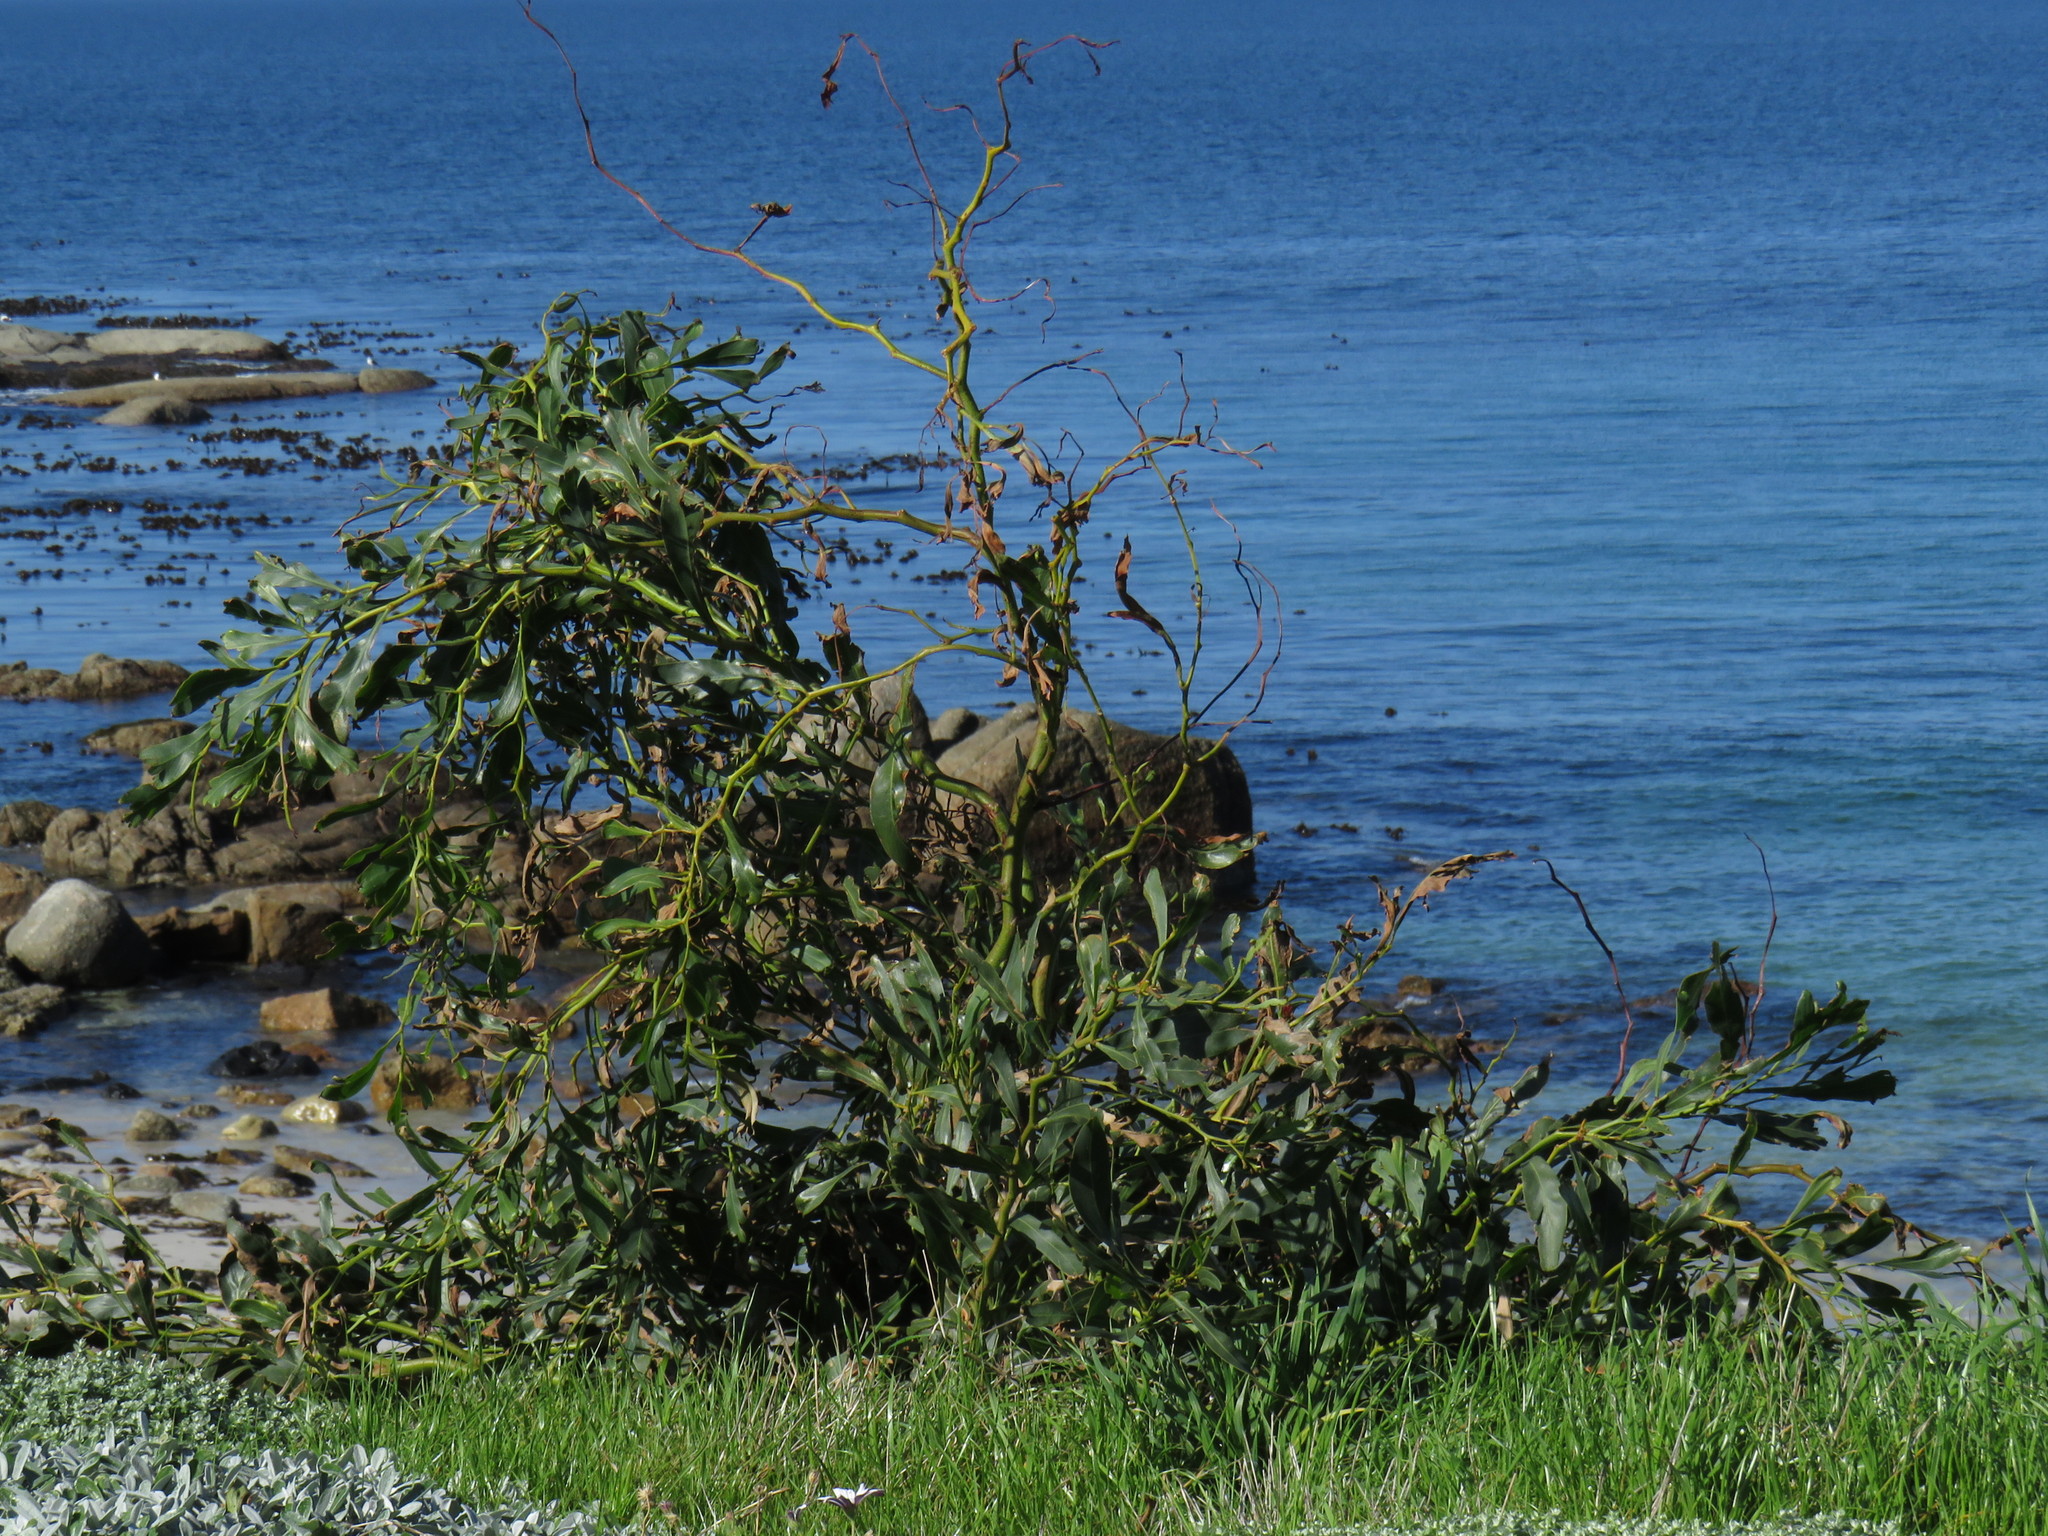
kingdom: Plantae
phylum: Tracheophyta
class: Magnoliopsida
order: Fabales
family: Fabaceae
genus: Acacia
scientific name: Acacia saligna
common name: Orange wattle
